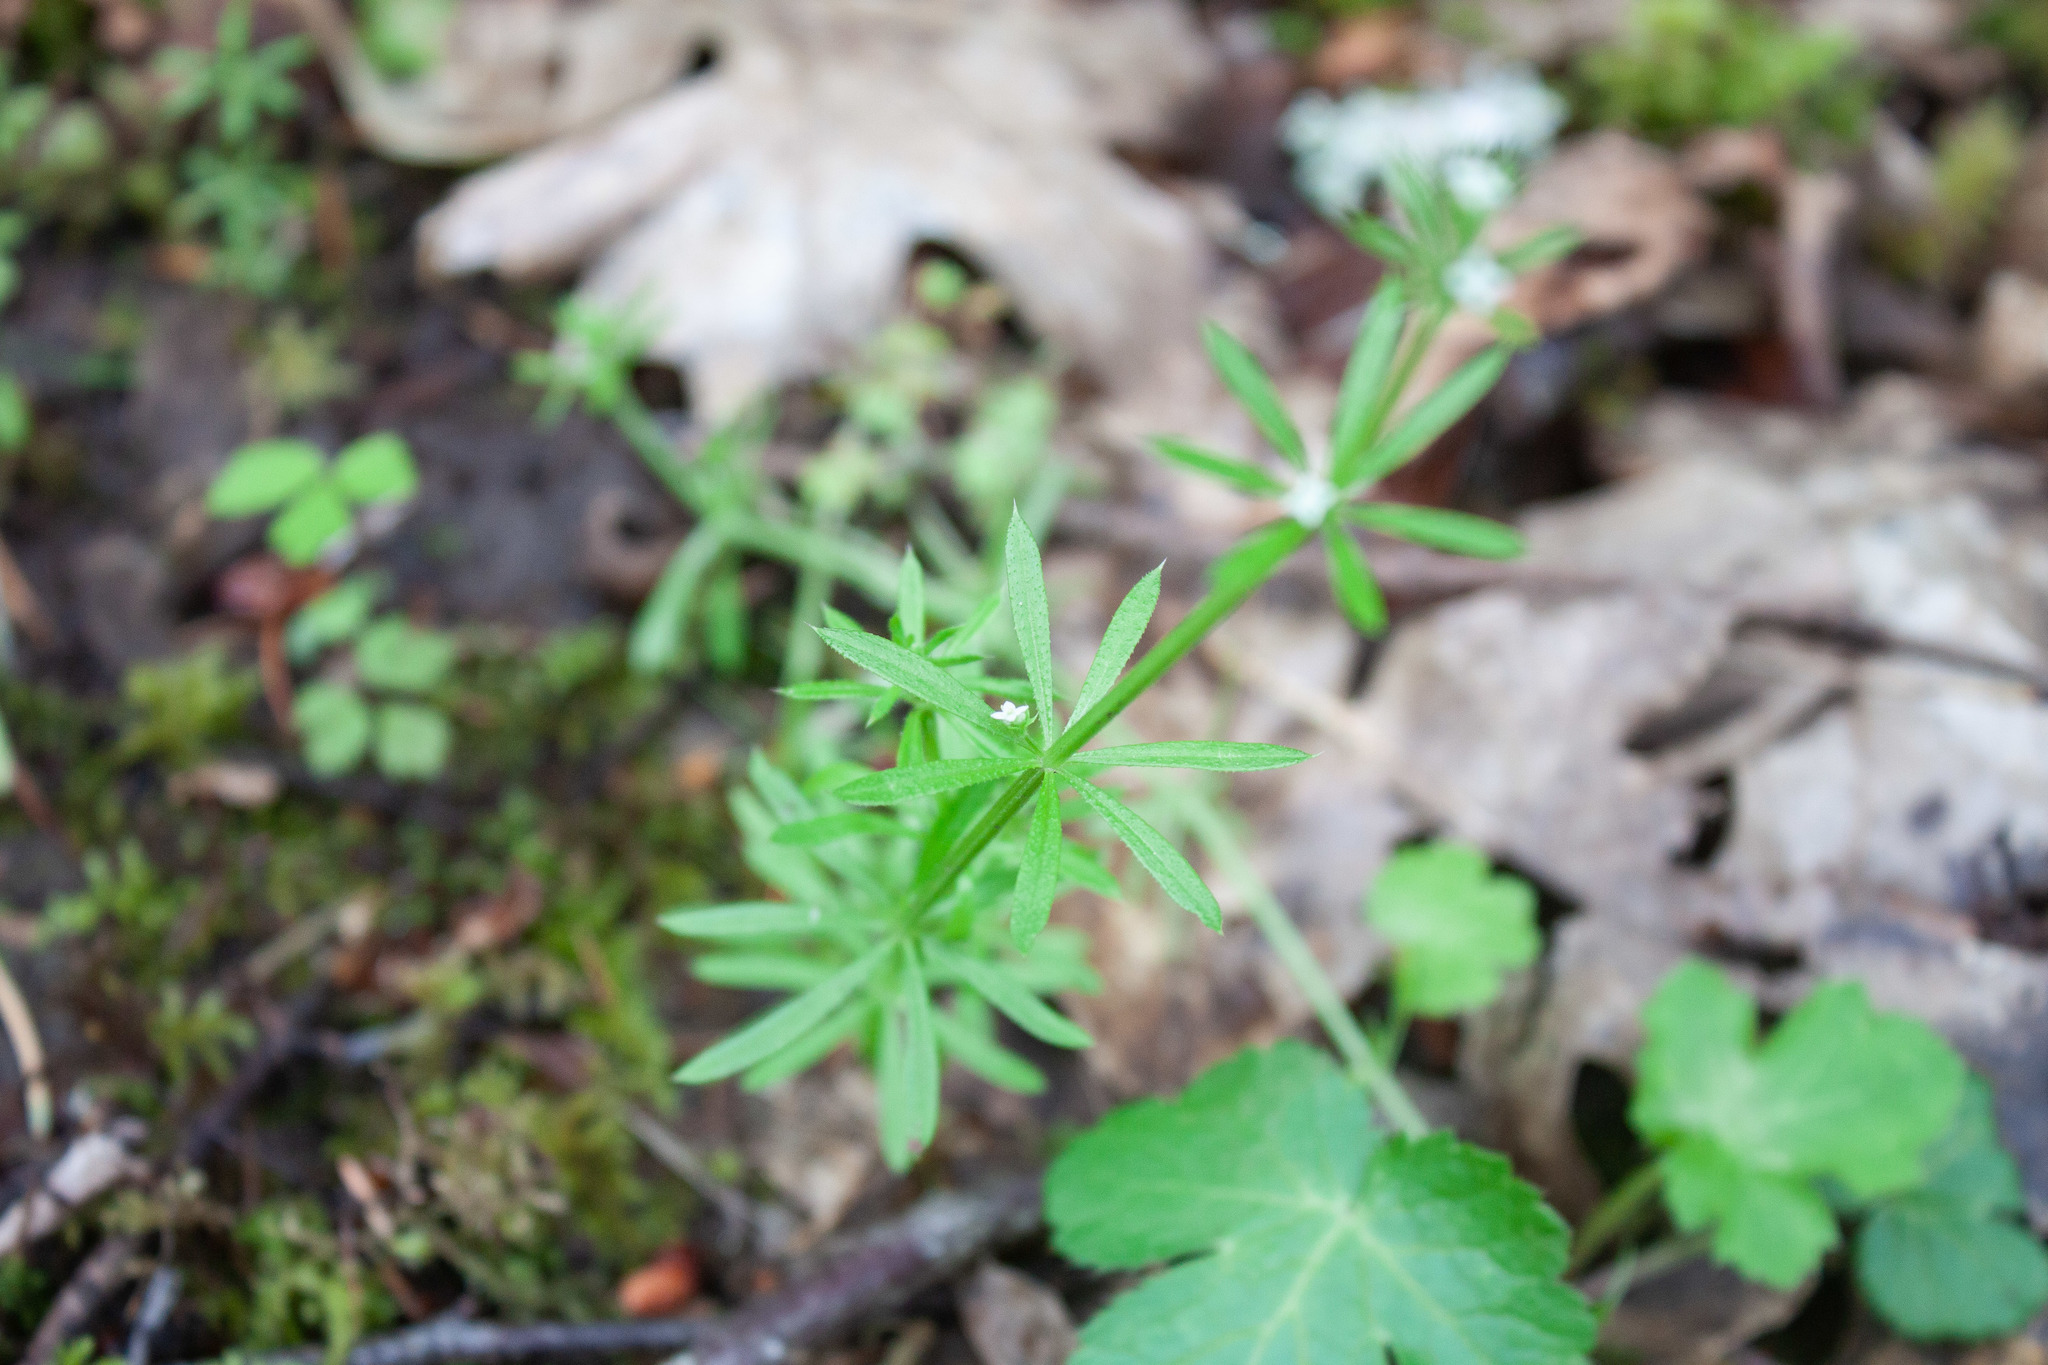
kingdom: Plantae
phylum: Tracheophyta
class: Magnoliopsida
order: Gentianales
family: Rubiaceae
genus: Galium
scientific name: Galium aparine
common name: Cleavers
